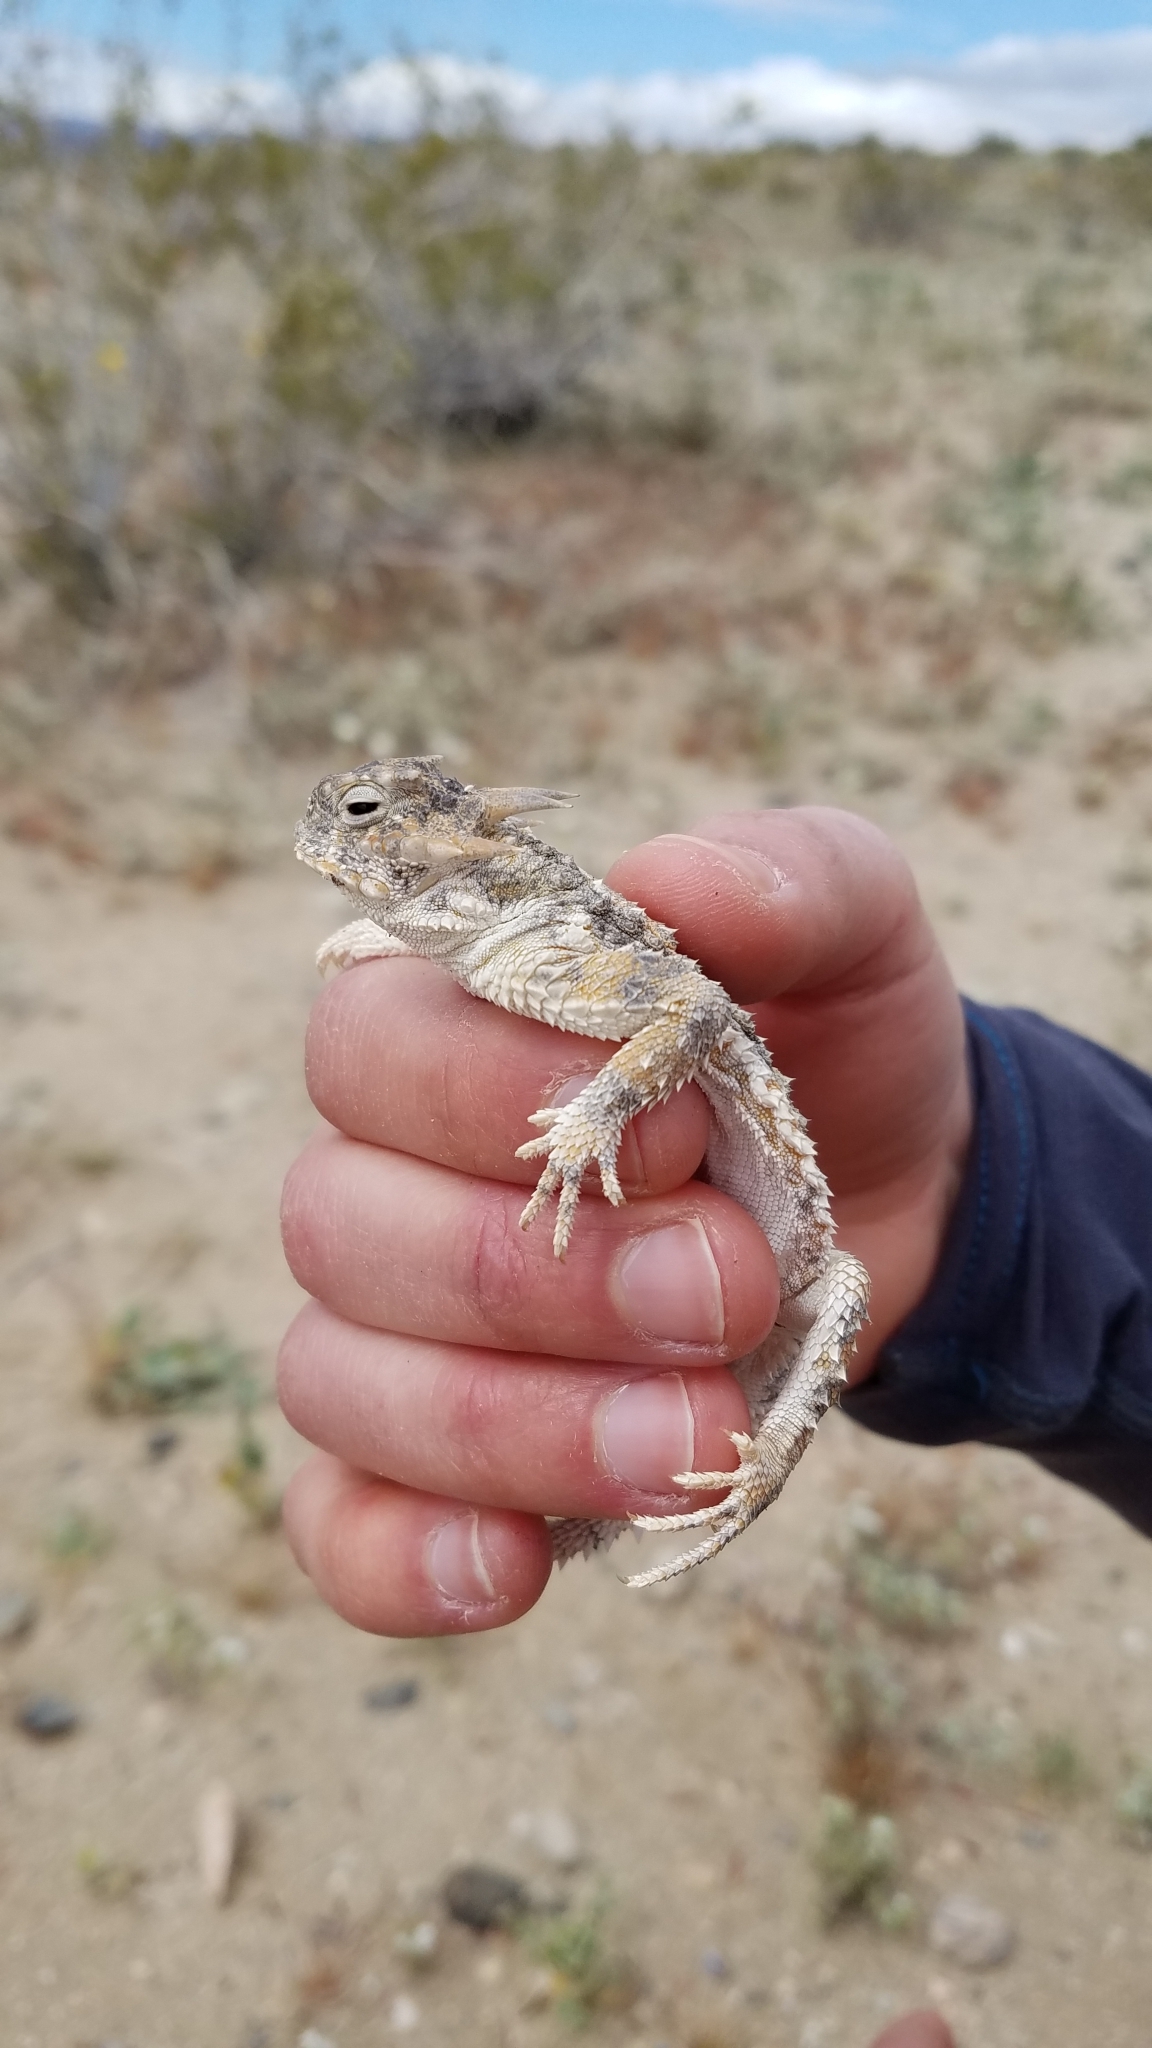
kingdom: Animalia
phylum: Chordata
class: Squamata
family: Phrynosomatidae
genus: Phrynosoma
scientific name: Phrynosoma platyrhinos
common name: Desert horned lizard
